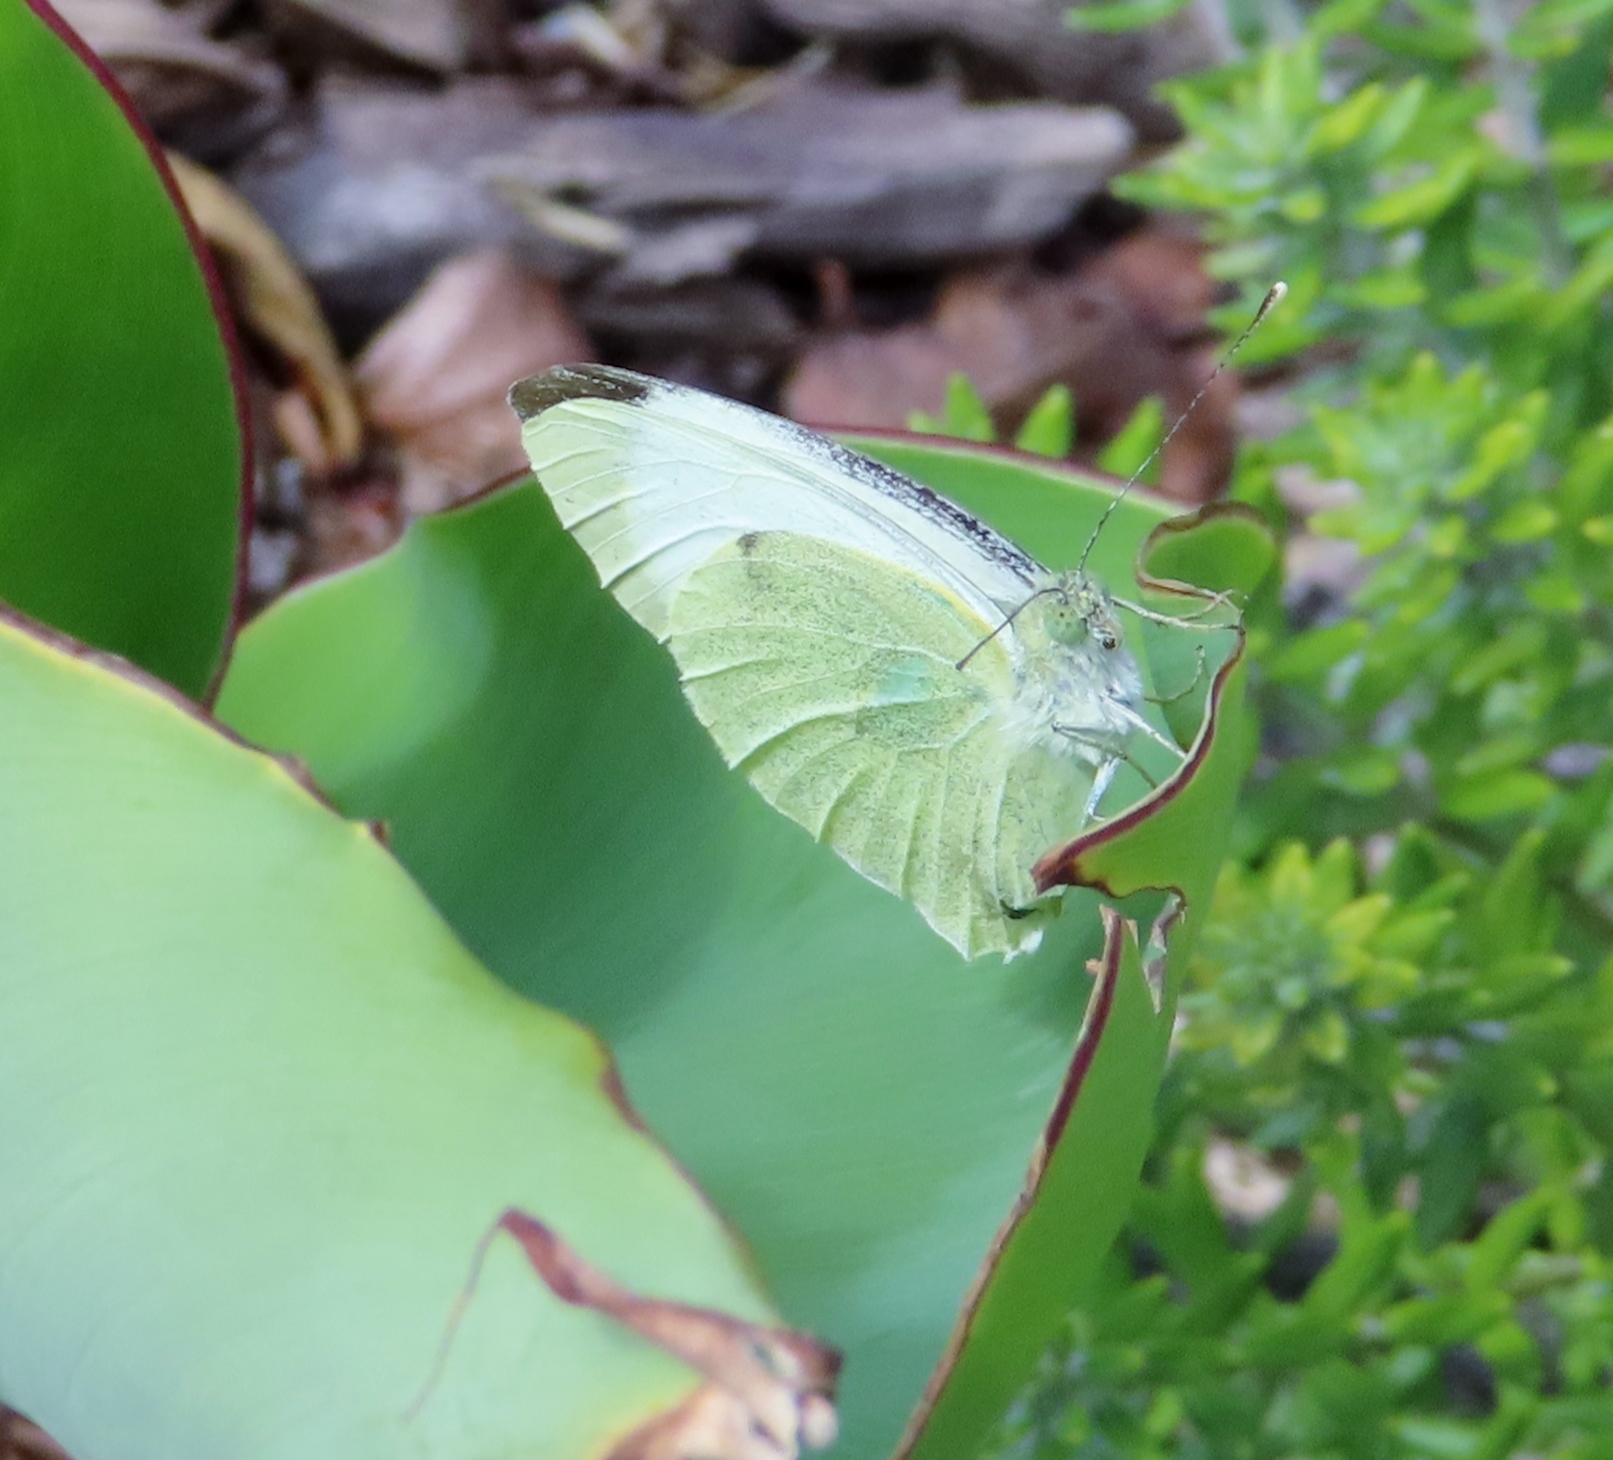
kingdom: Animalia
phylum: Arthropoda
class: Insecta
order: Lepidoptera
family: Pieridae
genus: Pieris
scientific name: Pieris brassicae
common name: Large white
